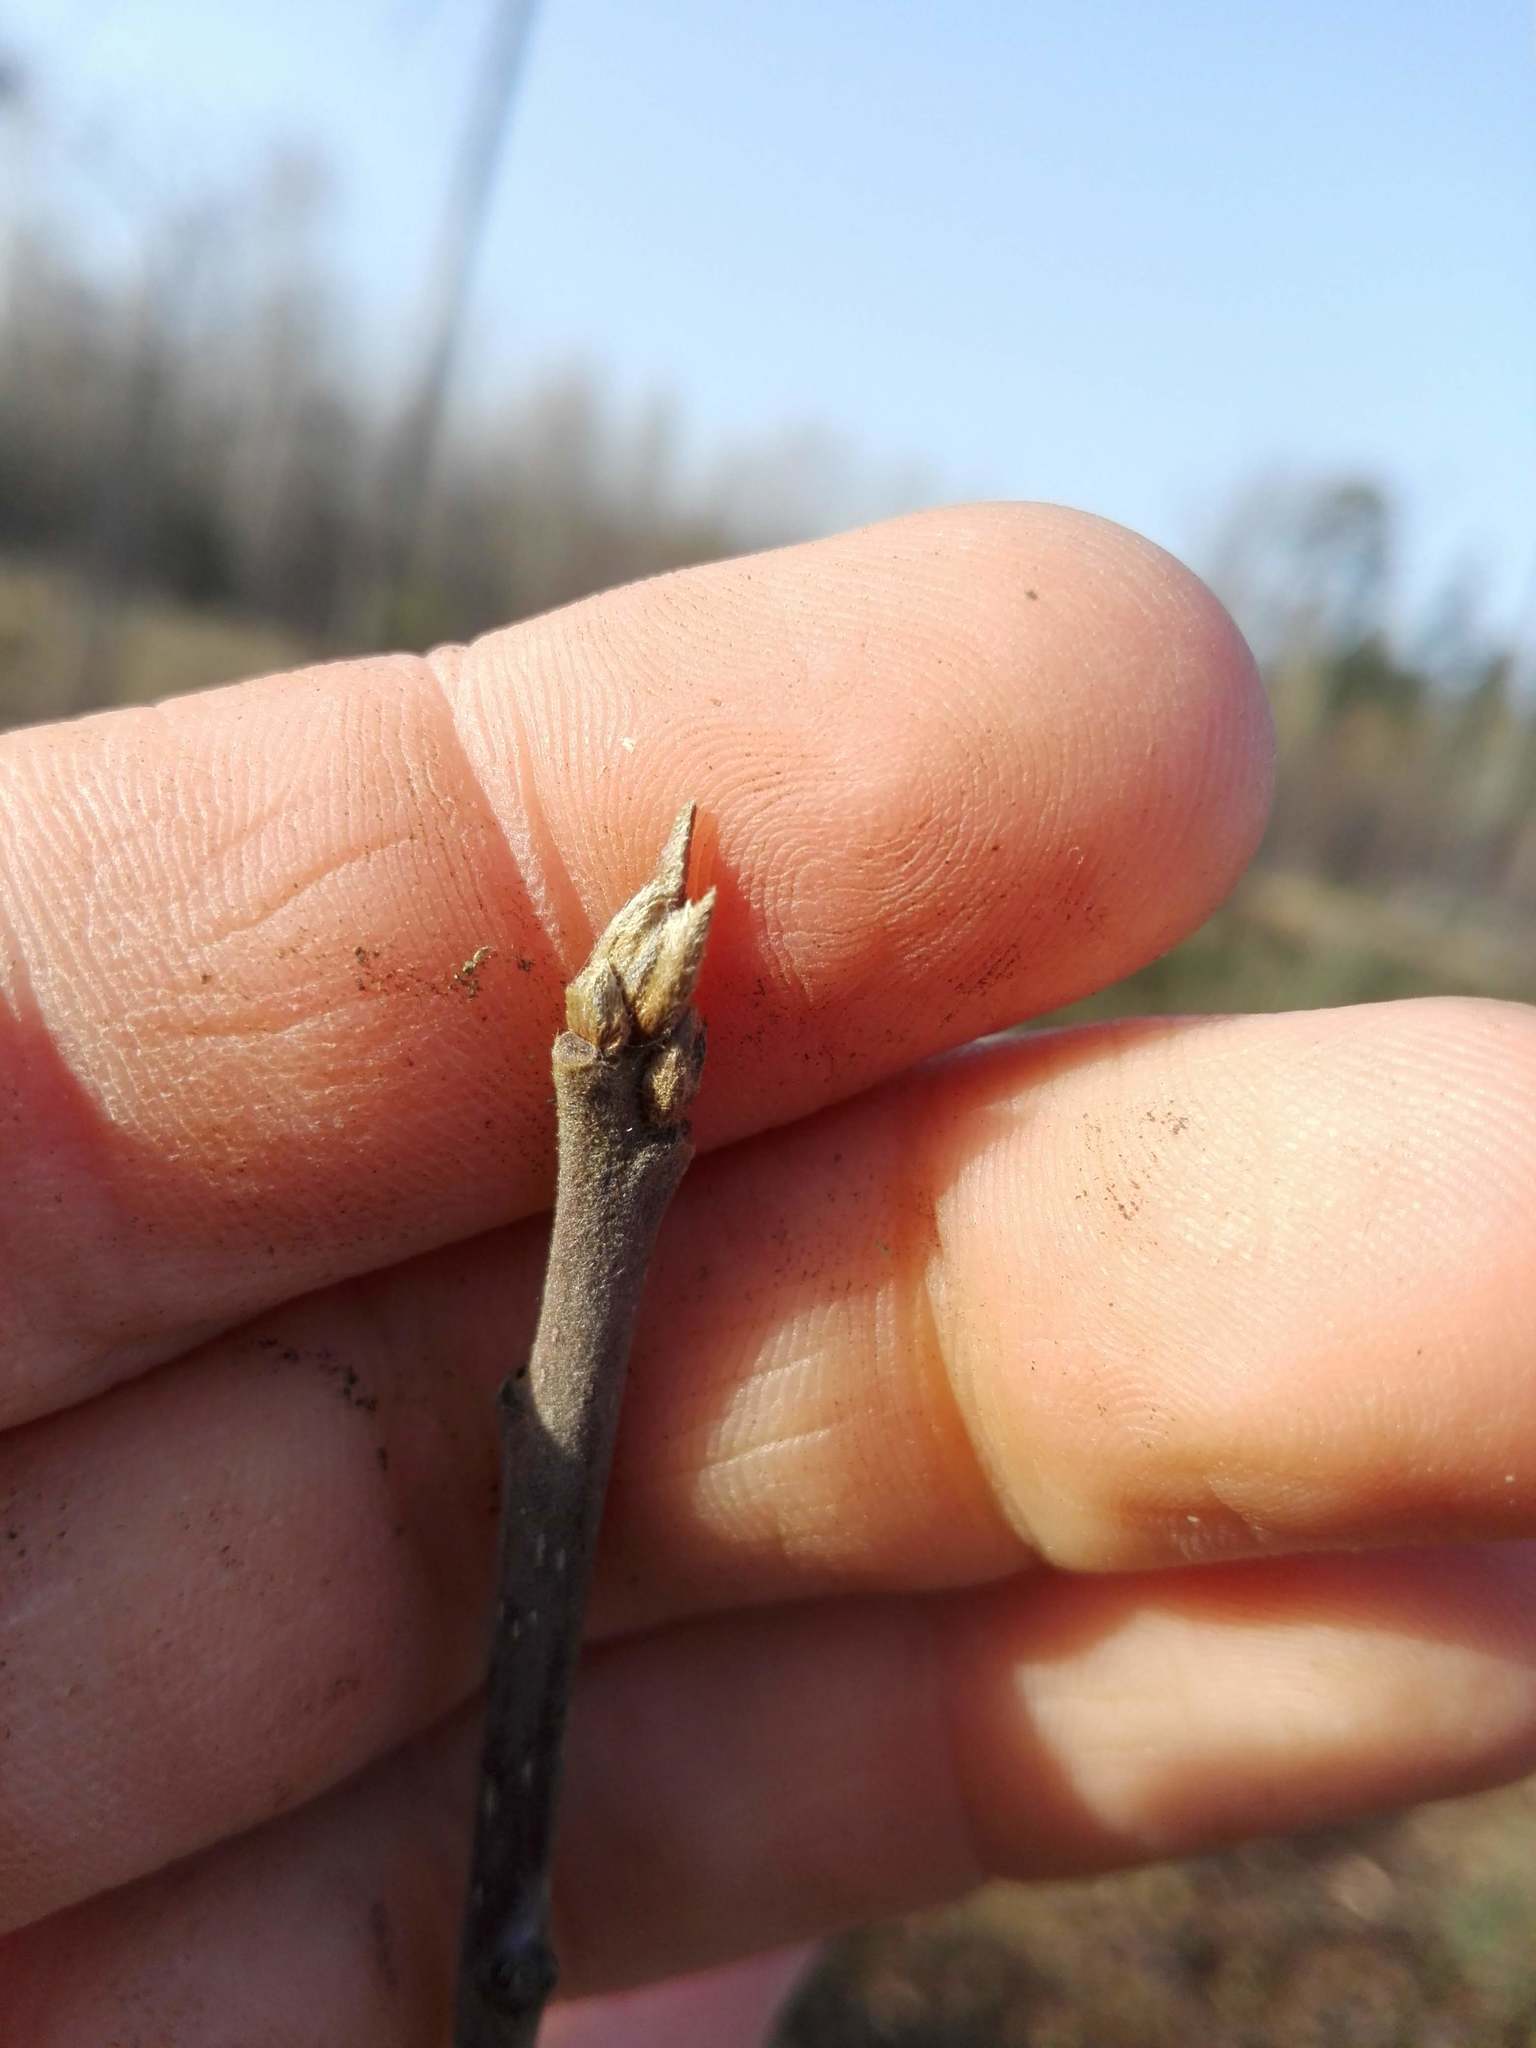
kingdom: Plantae
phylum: Tracheophyta
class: Magnoliopsida
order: Rosales
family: Rhamnaceae
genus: Frangula
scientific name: Frangula alnus
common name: Alder buckthorn
